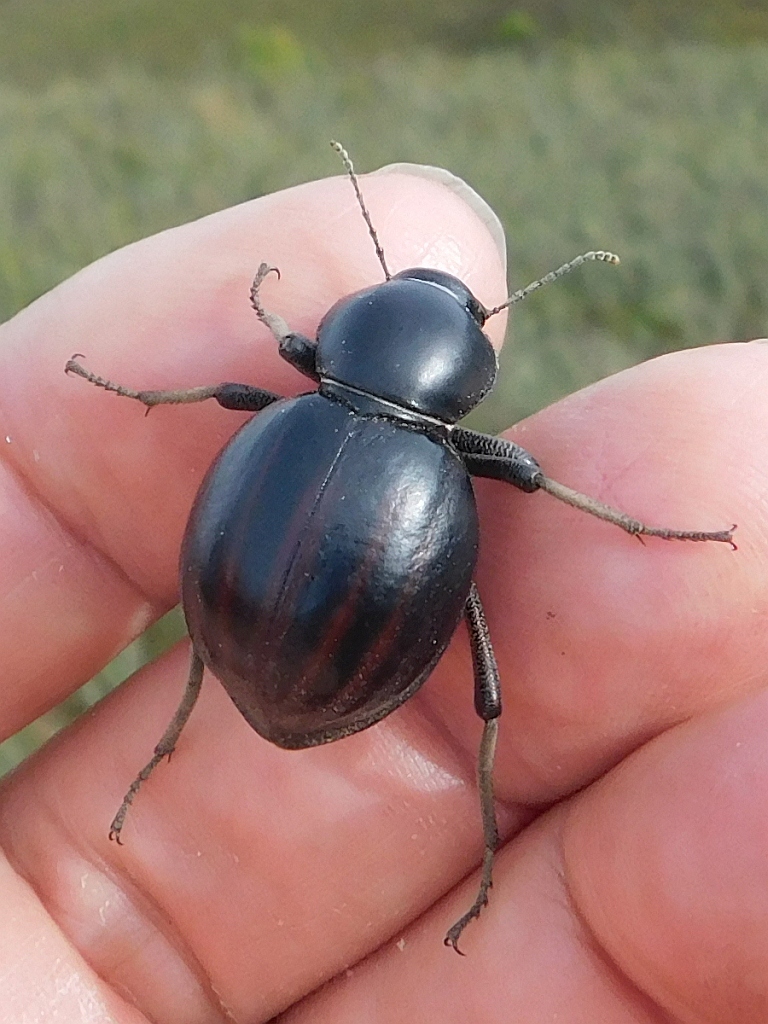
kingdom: Animalia
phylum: Arthropoda
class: Insecta
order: Coleoptera
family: Tenebrionidae
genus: Mariazofia
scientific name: Mariazofia
